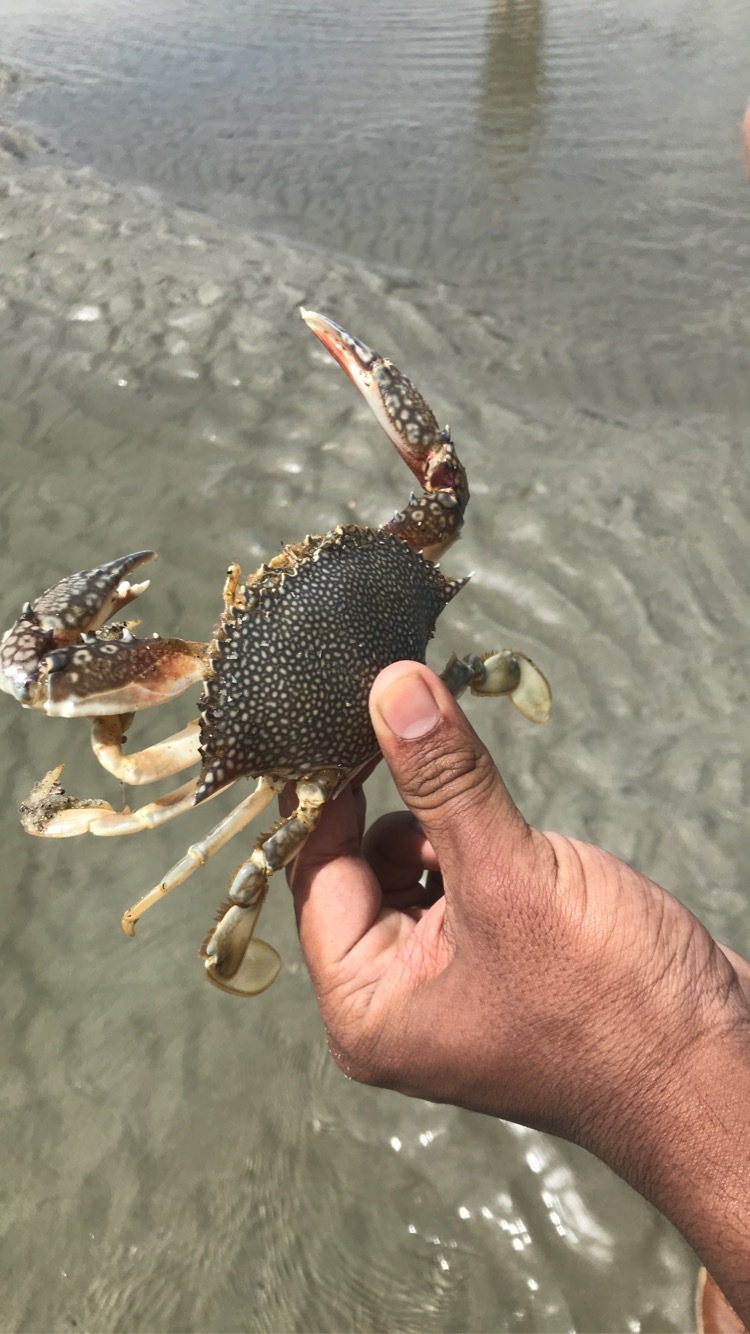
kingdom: Animalia
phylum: Arthropoda
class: Malacostraca
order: Decapoda
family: Portunidae
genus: Arenaeus
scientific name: Arenaeus cribrarius
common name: Speckled crab
